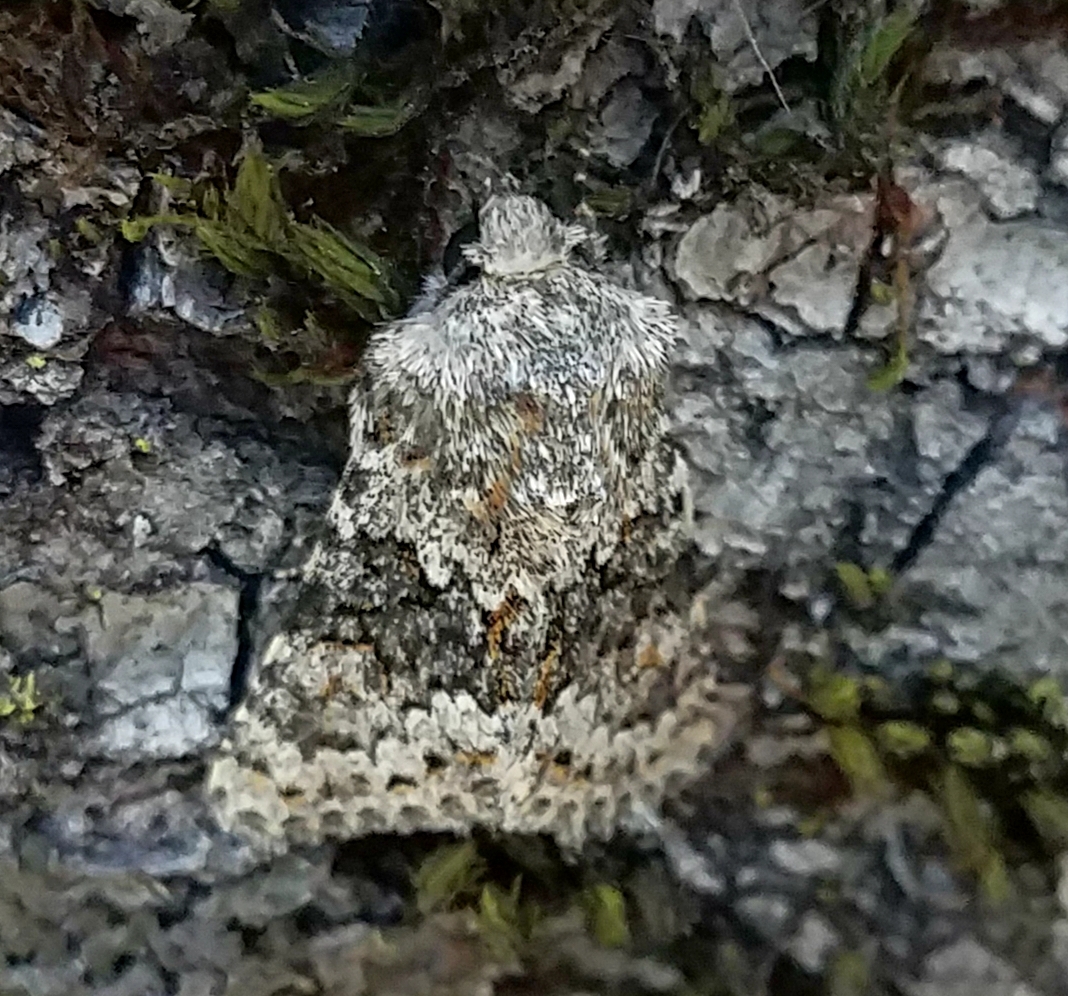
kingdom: Animalia
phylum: Arthropoda
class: Insecta
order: Lepidoptera
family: Noctuidae
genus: Hecatera
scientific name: Hecatera dysodea
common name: Small ranunculus
